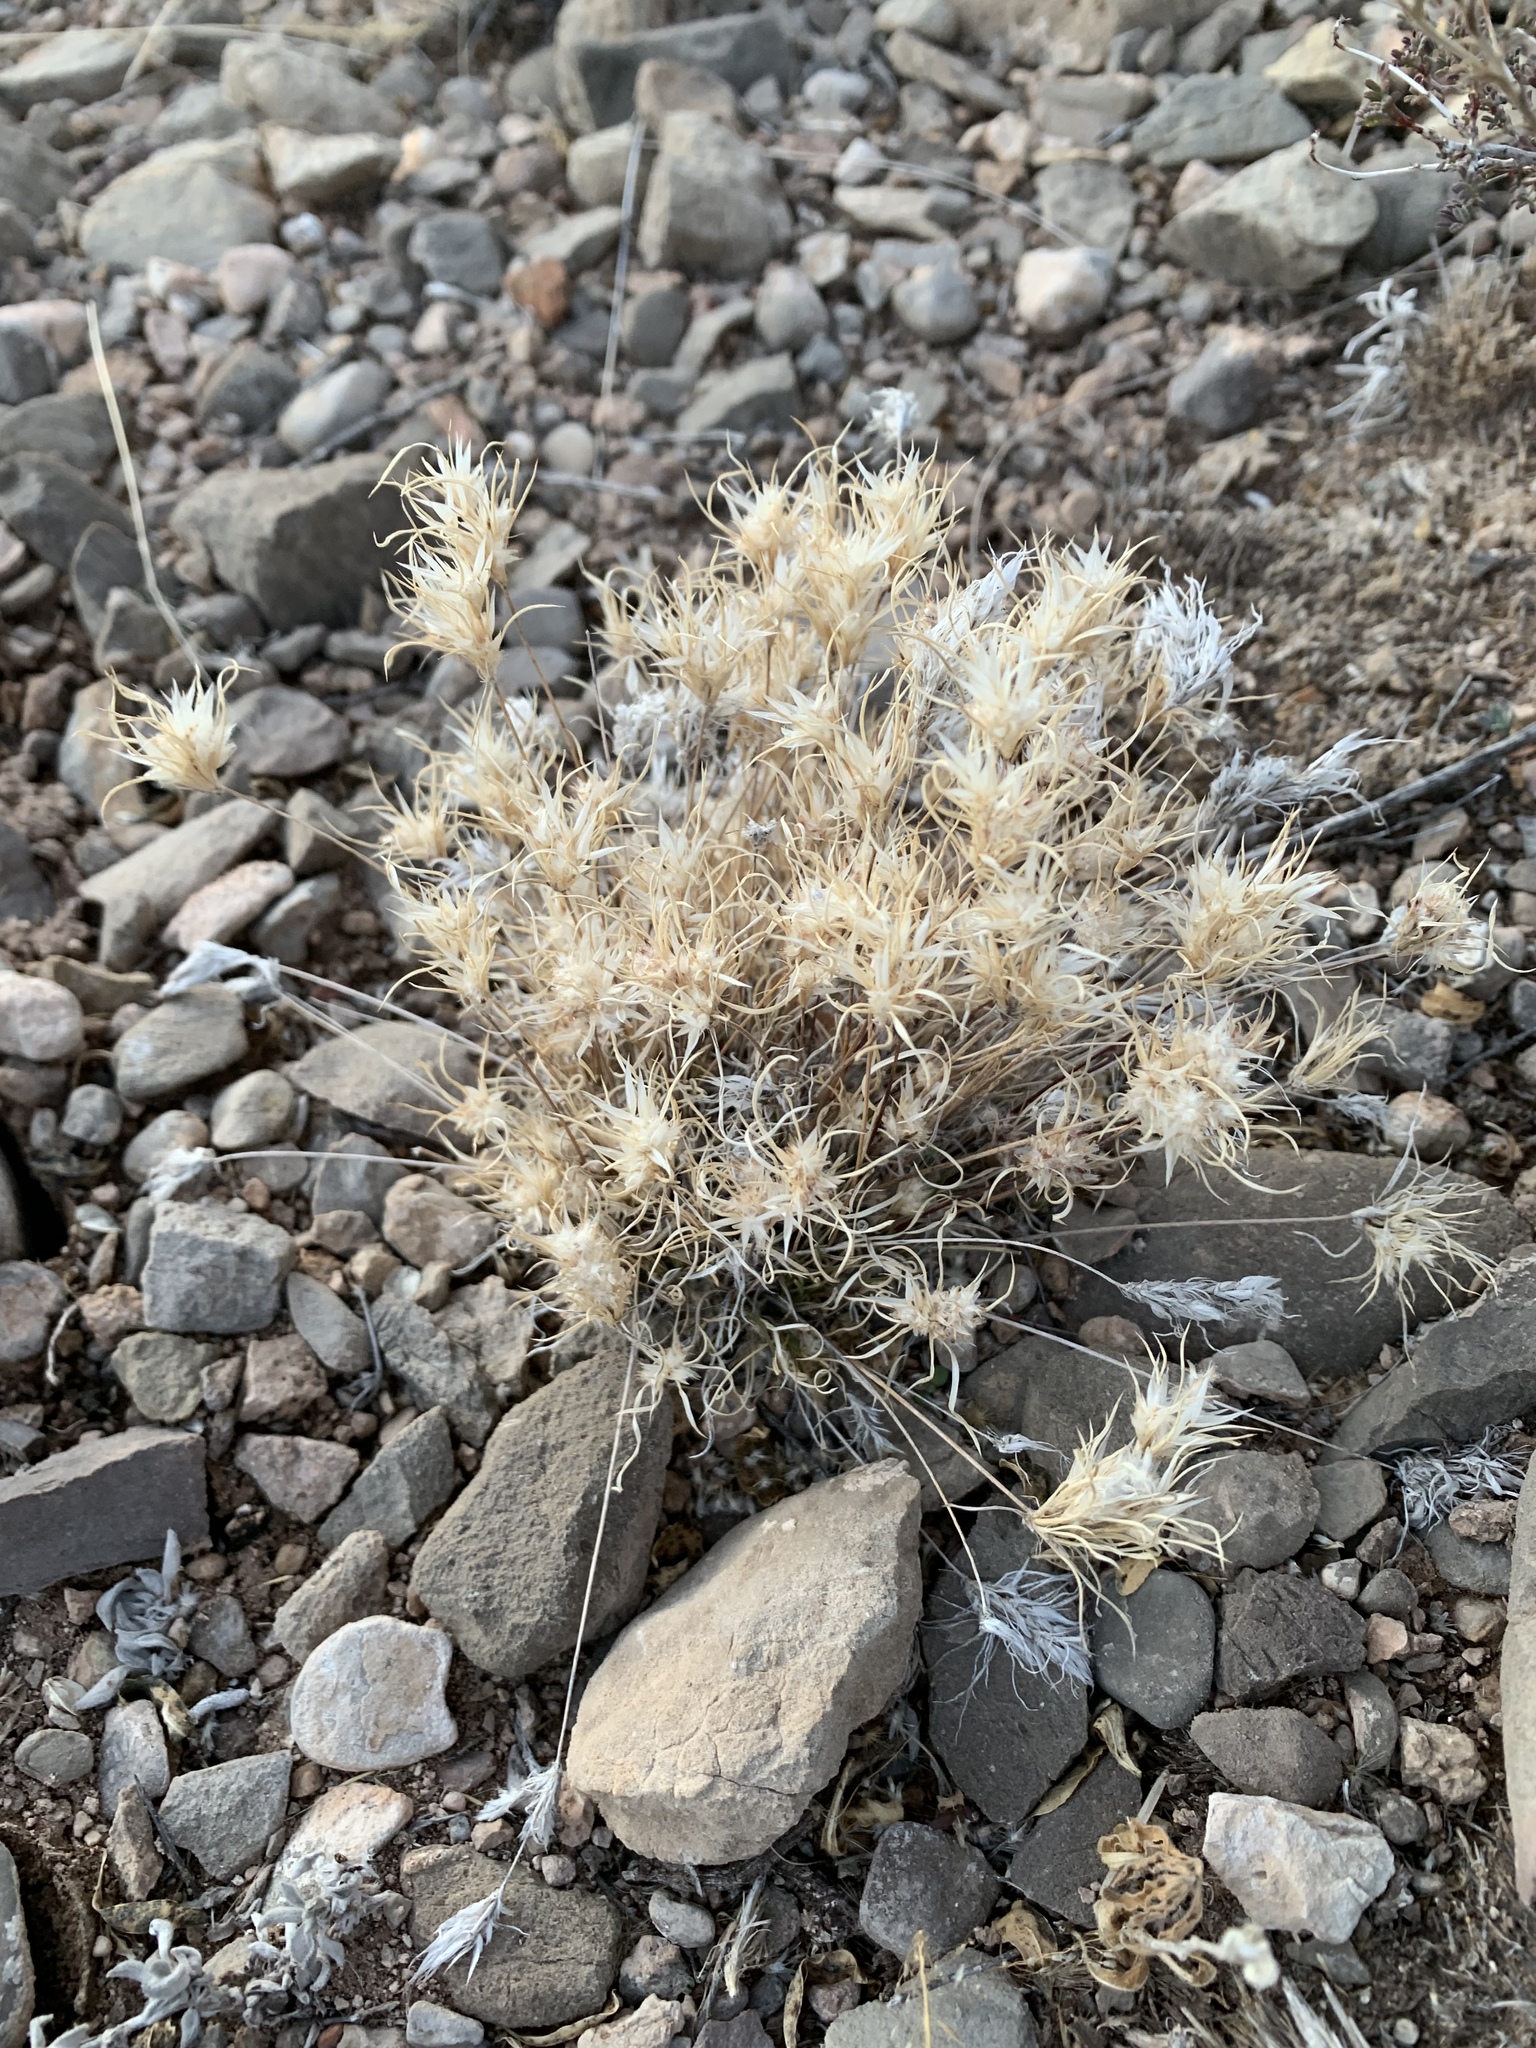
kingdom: Plantae
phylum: Tracheophyta
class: Liliopsida
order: Poales
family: Poaceae
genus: Dasyochloa
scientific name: Dasyochloa pulchella
